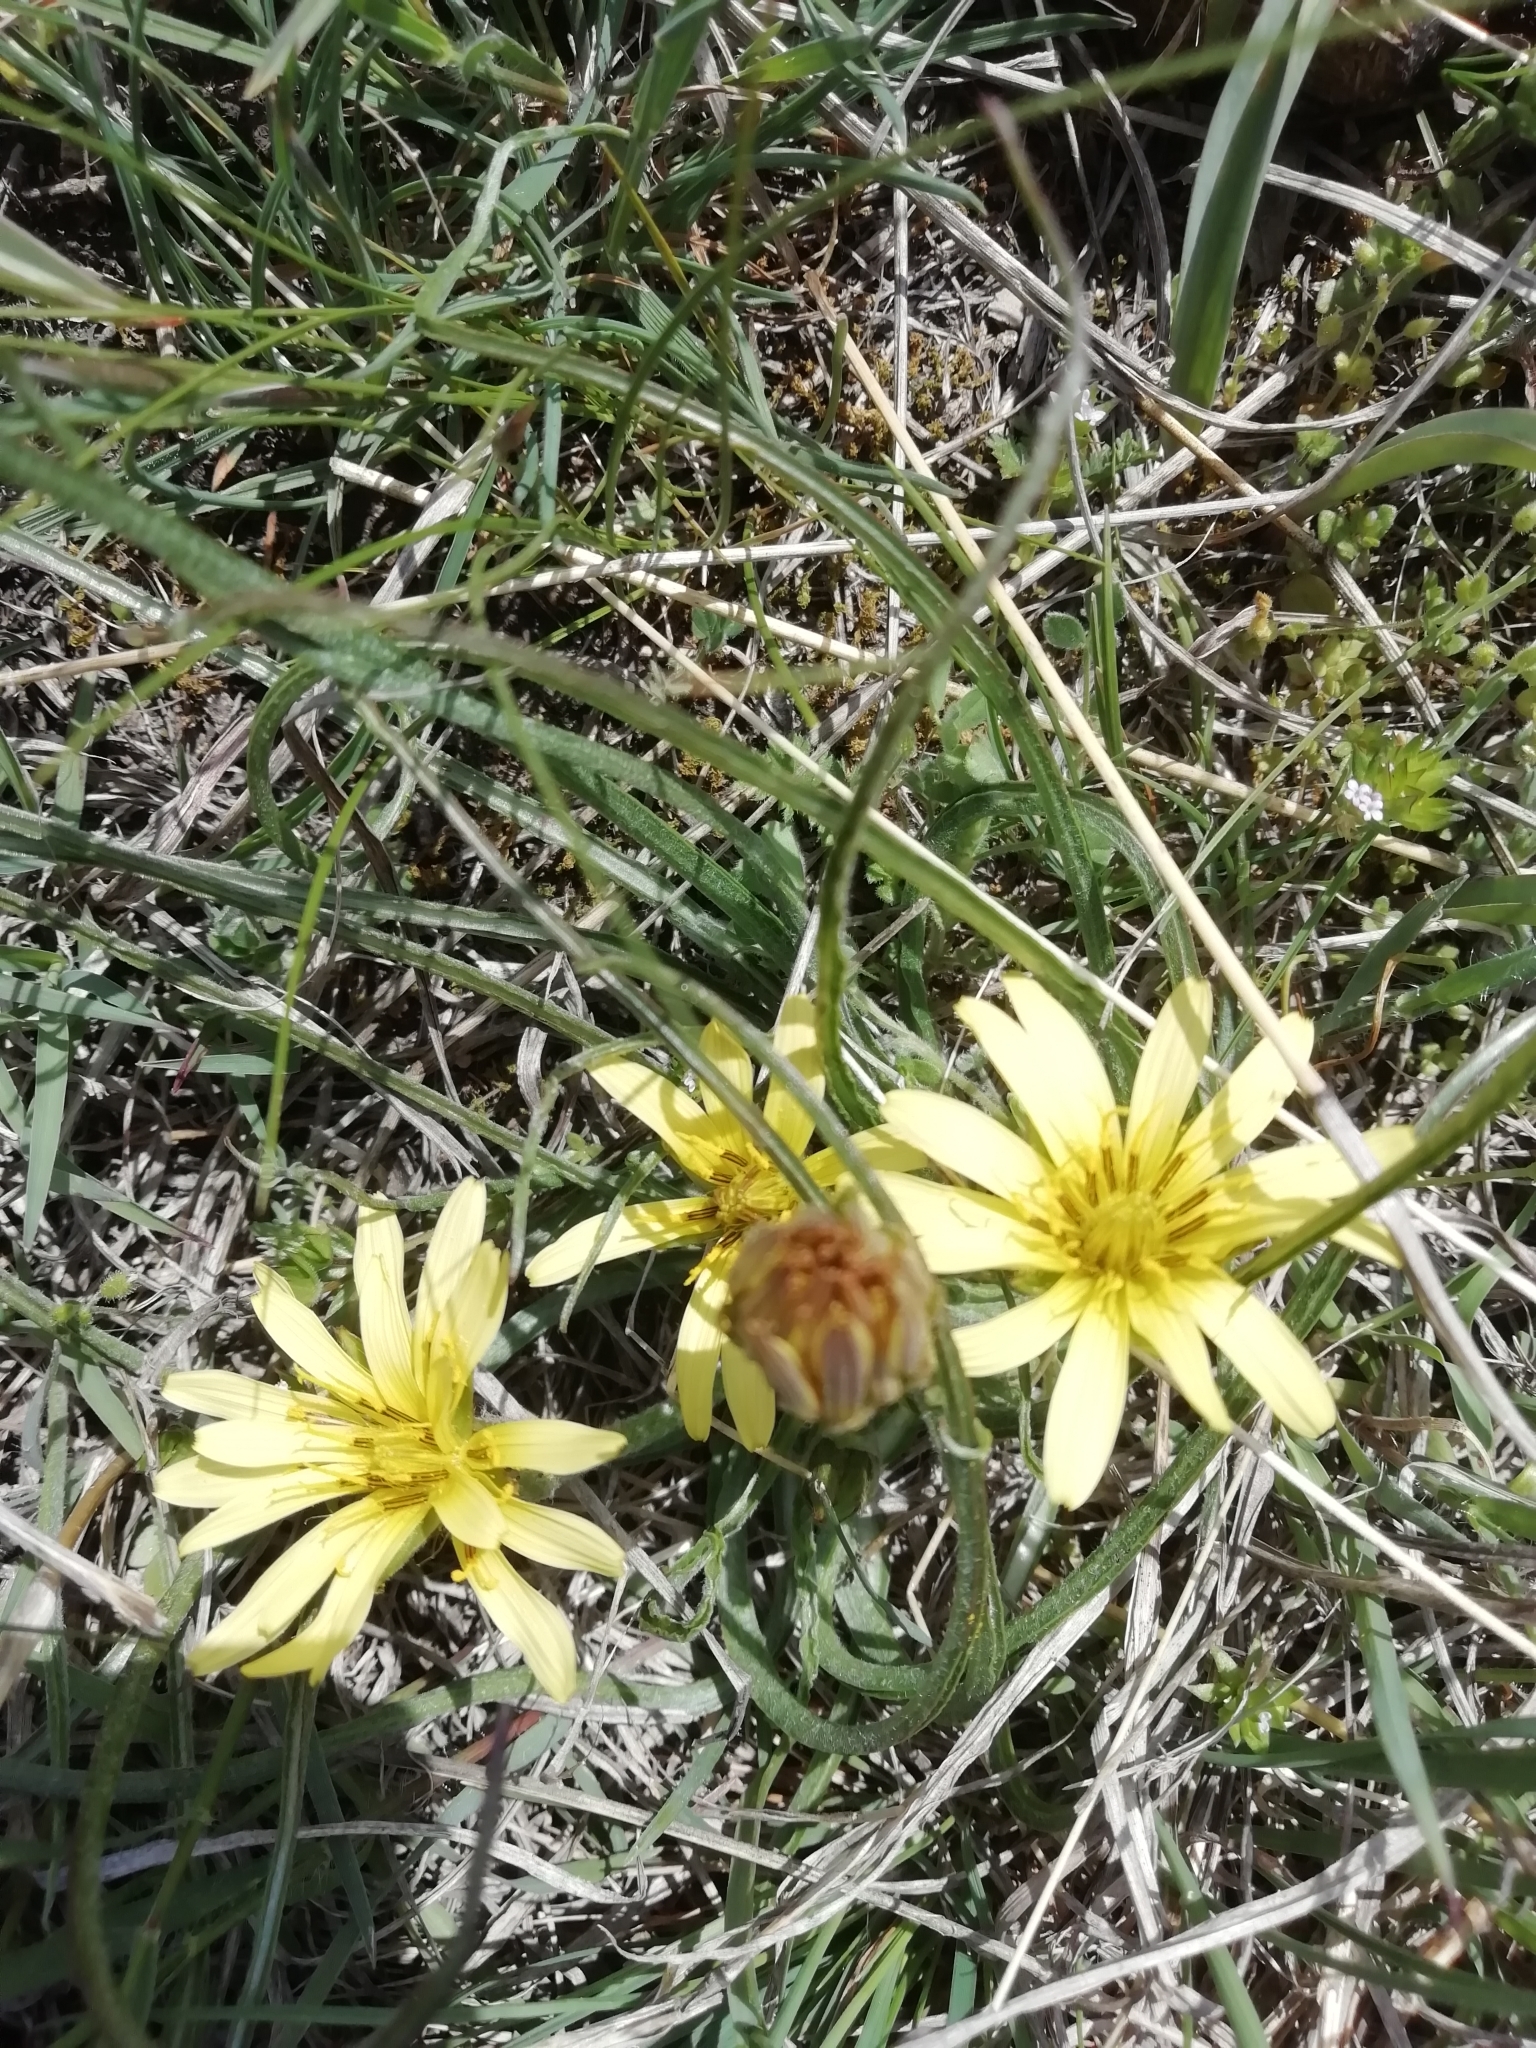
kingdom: Plantae
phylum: Tracheophyta
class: Magnoliopsida
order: Asterales
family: Asteraceae
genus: Candollea
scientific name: Candollea mollis
